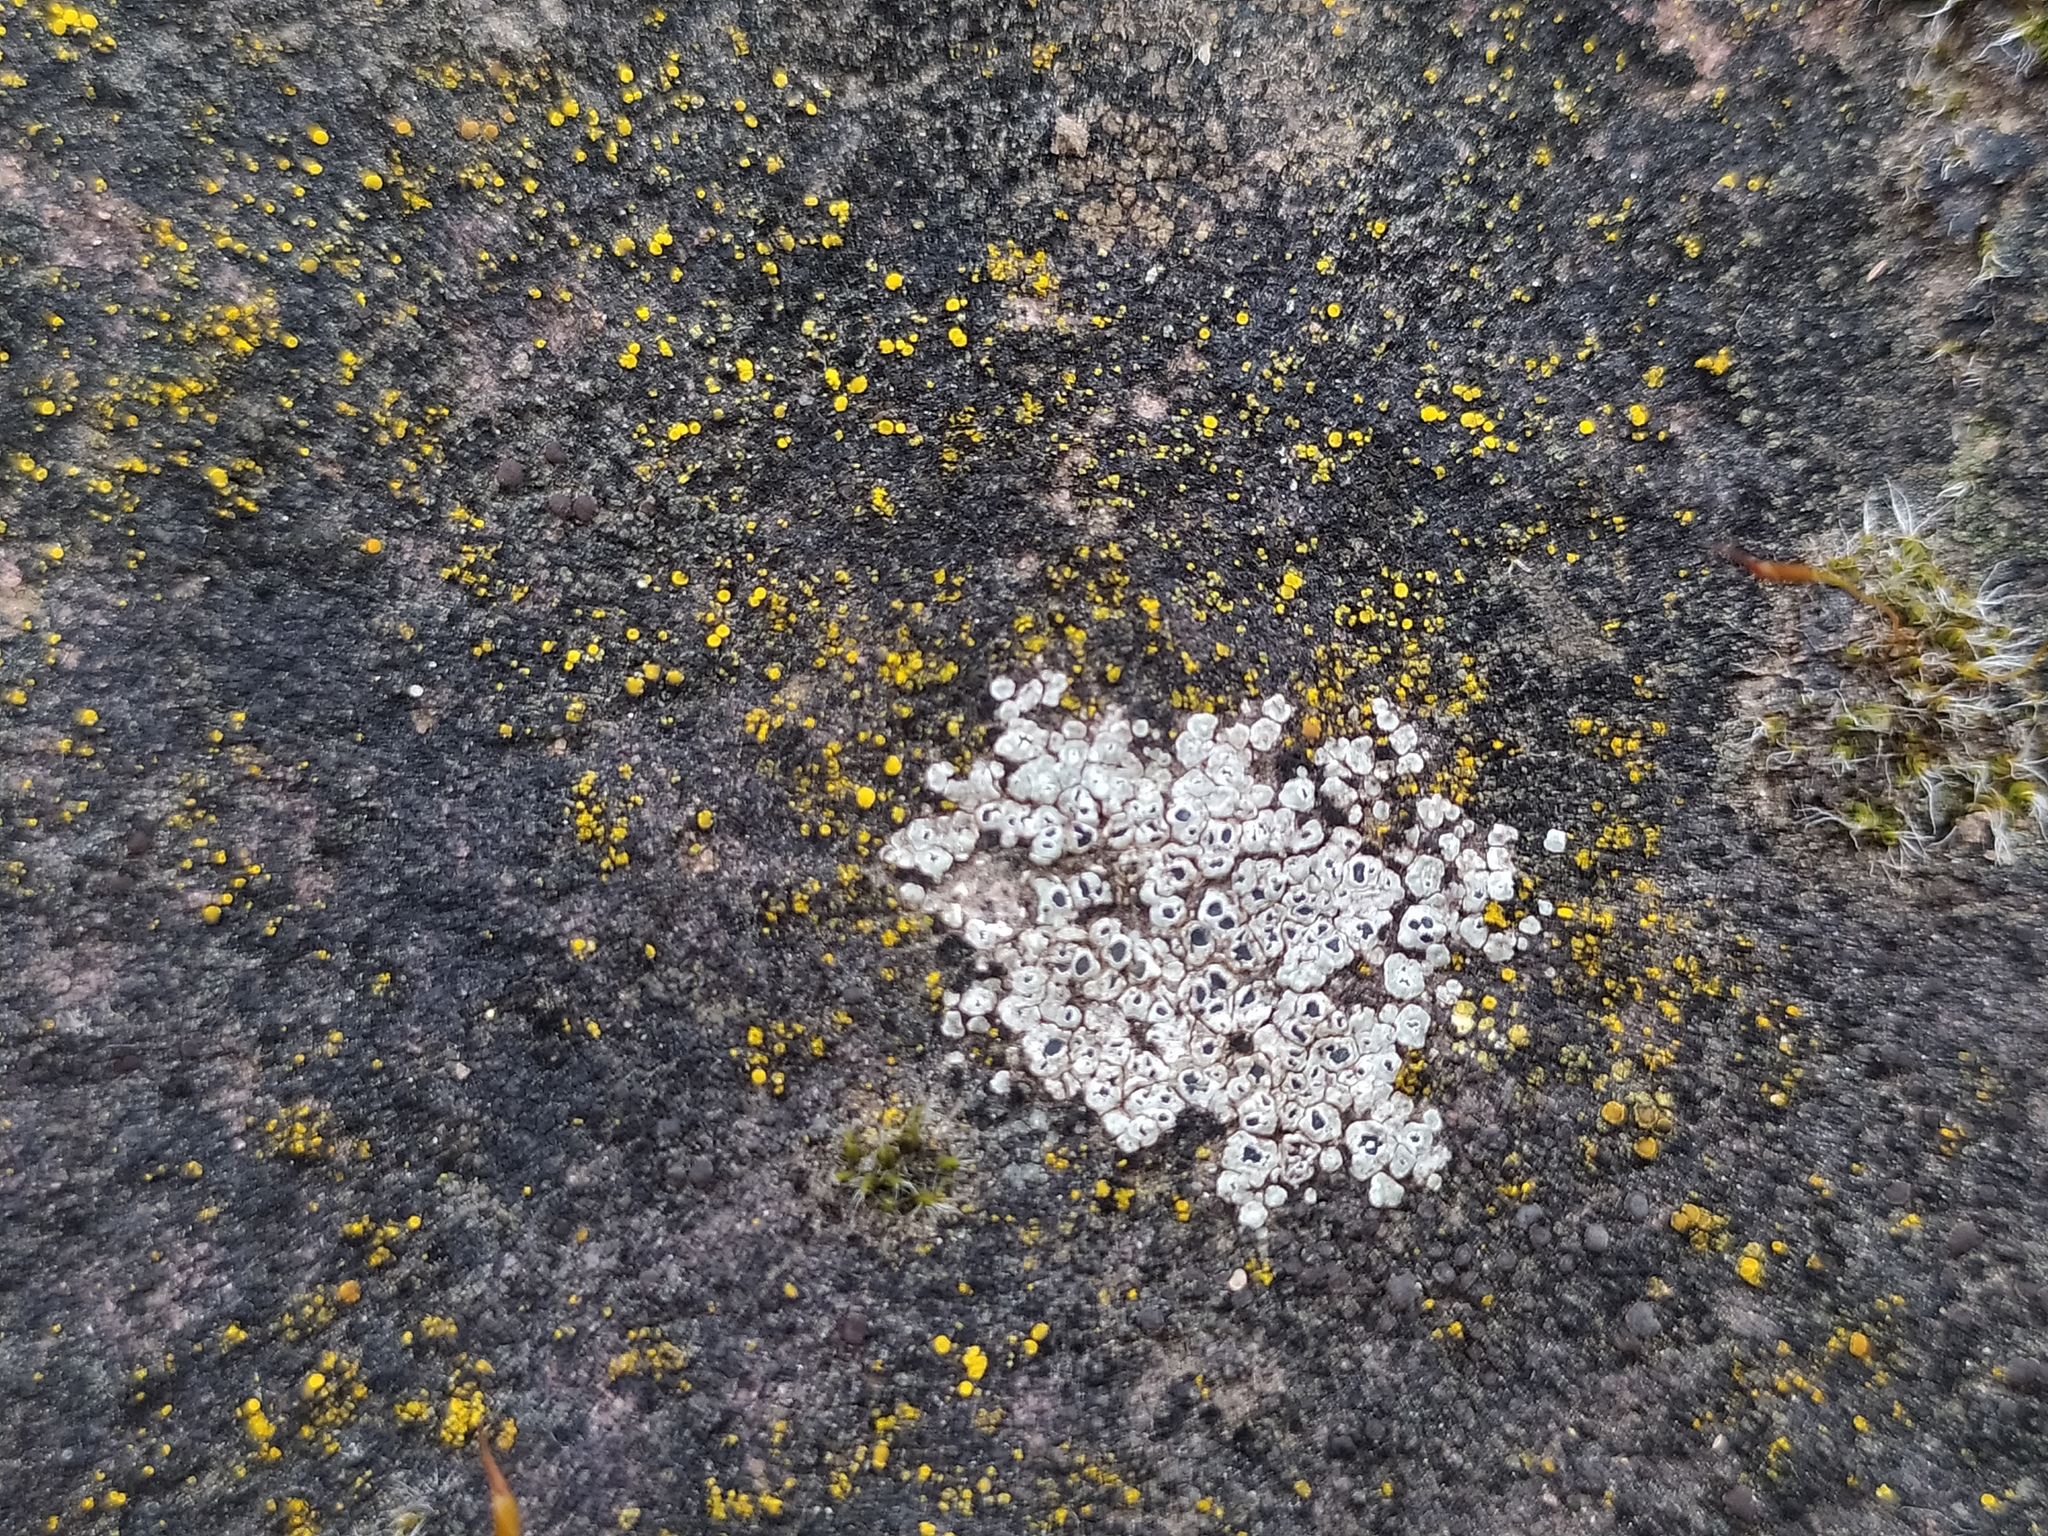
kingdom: Fungi
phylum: Ascomycota
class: Lecanoromycetes
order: Pertusariales
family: Megasporaceae
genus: Circinaria
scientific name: Circinaria contorta
